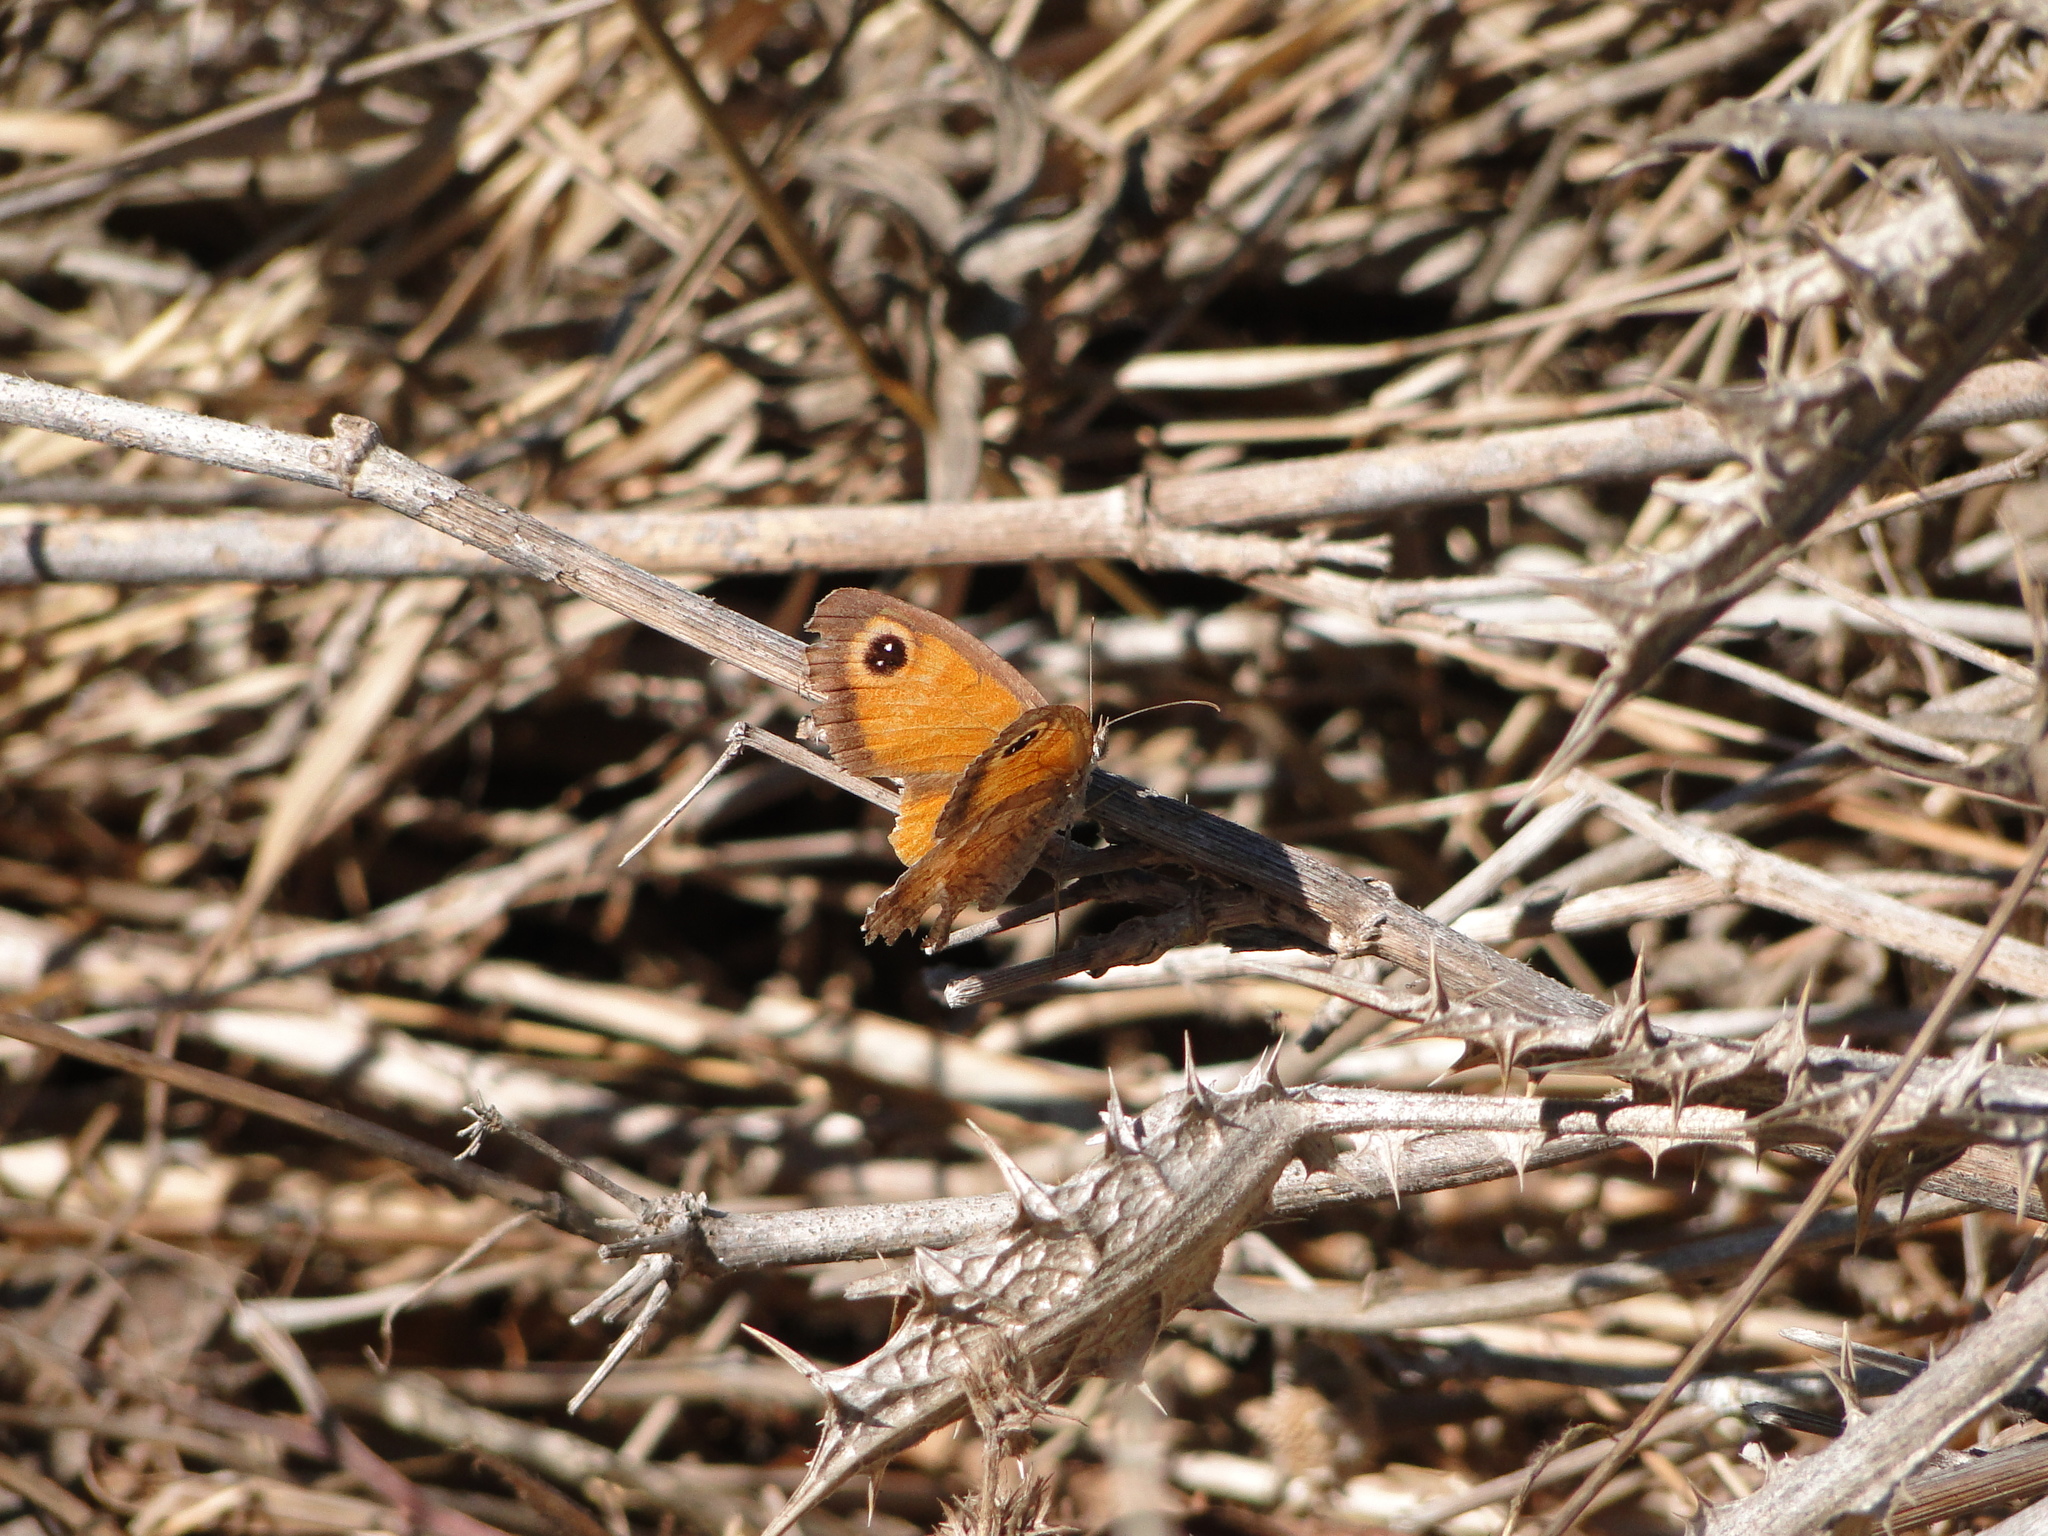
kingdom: Animalia
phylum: Arthropoda
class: Insecta
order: Lepidoptera
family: Nymphalidae
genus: Pyronia
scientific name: Pyronia cecilia
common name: Southern gatekeeper
